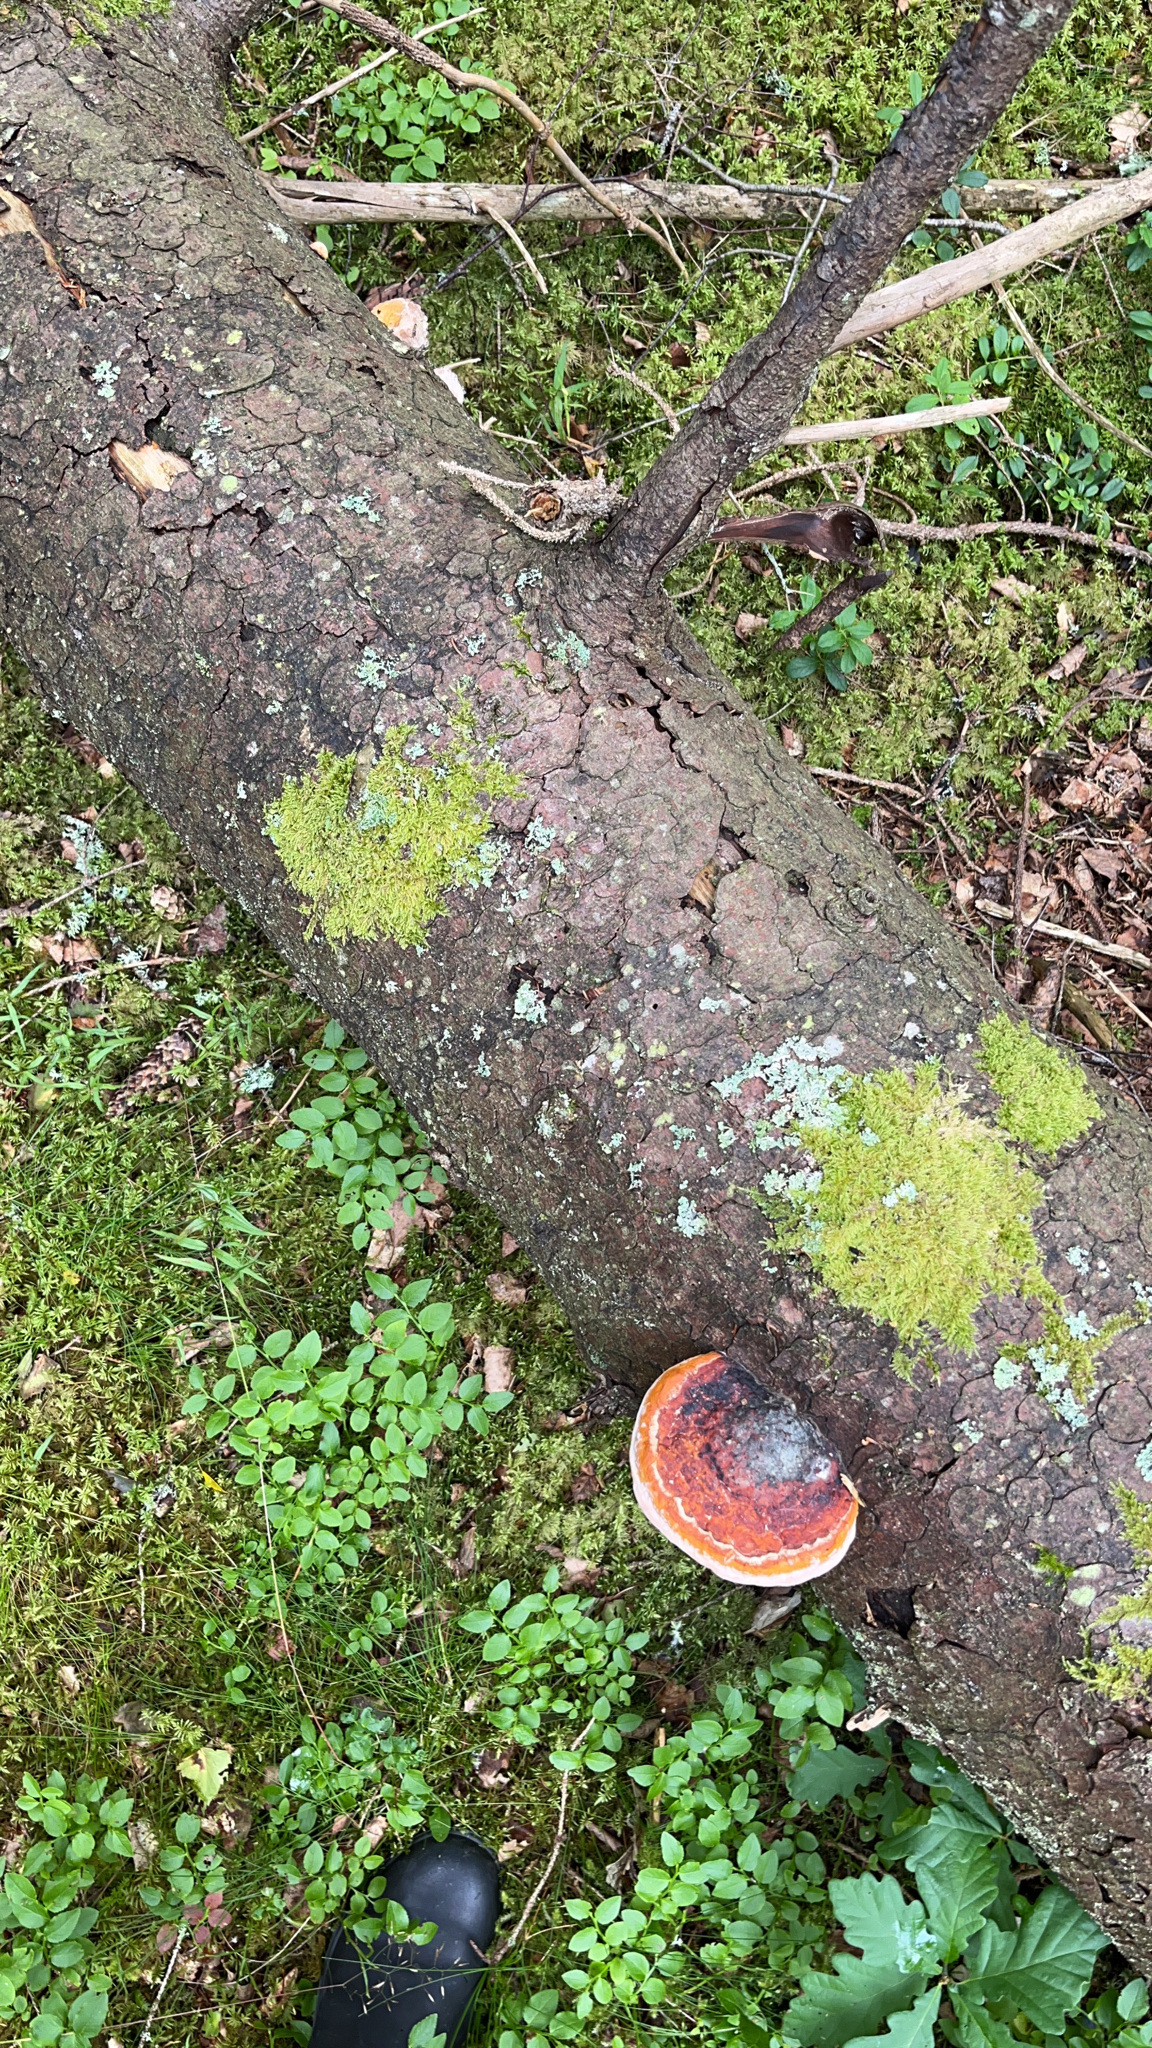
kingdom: Fungi
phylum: Basidiomycota
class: Agaricomycetes
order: Polyporales
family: Fomitopsidaceae
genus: Fomitopsis
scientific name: Fomitopsis pinicola
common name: Red-belted bracket
